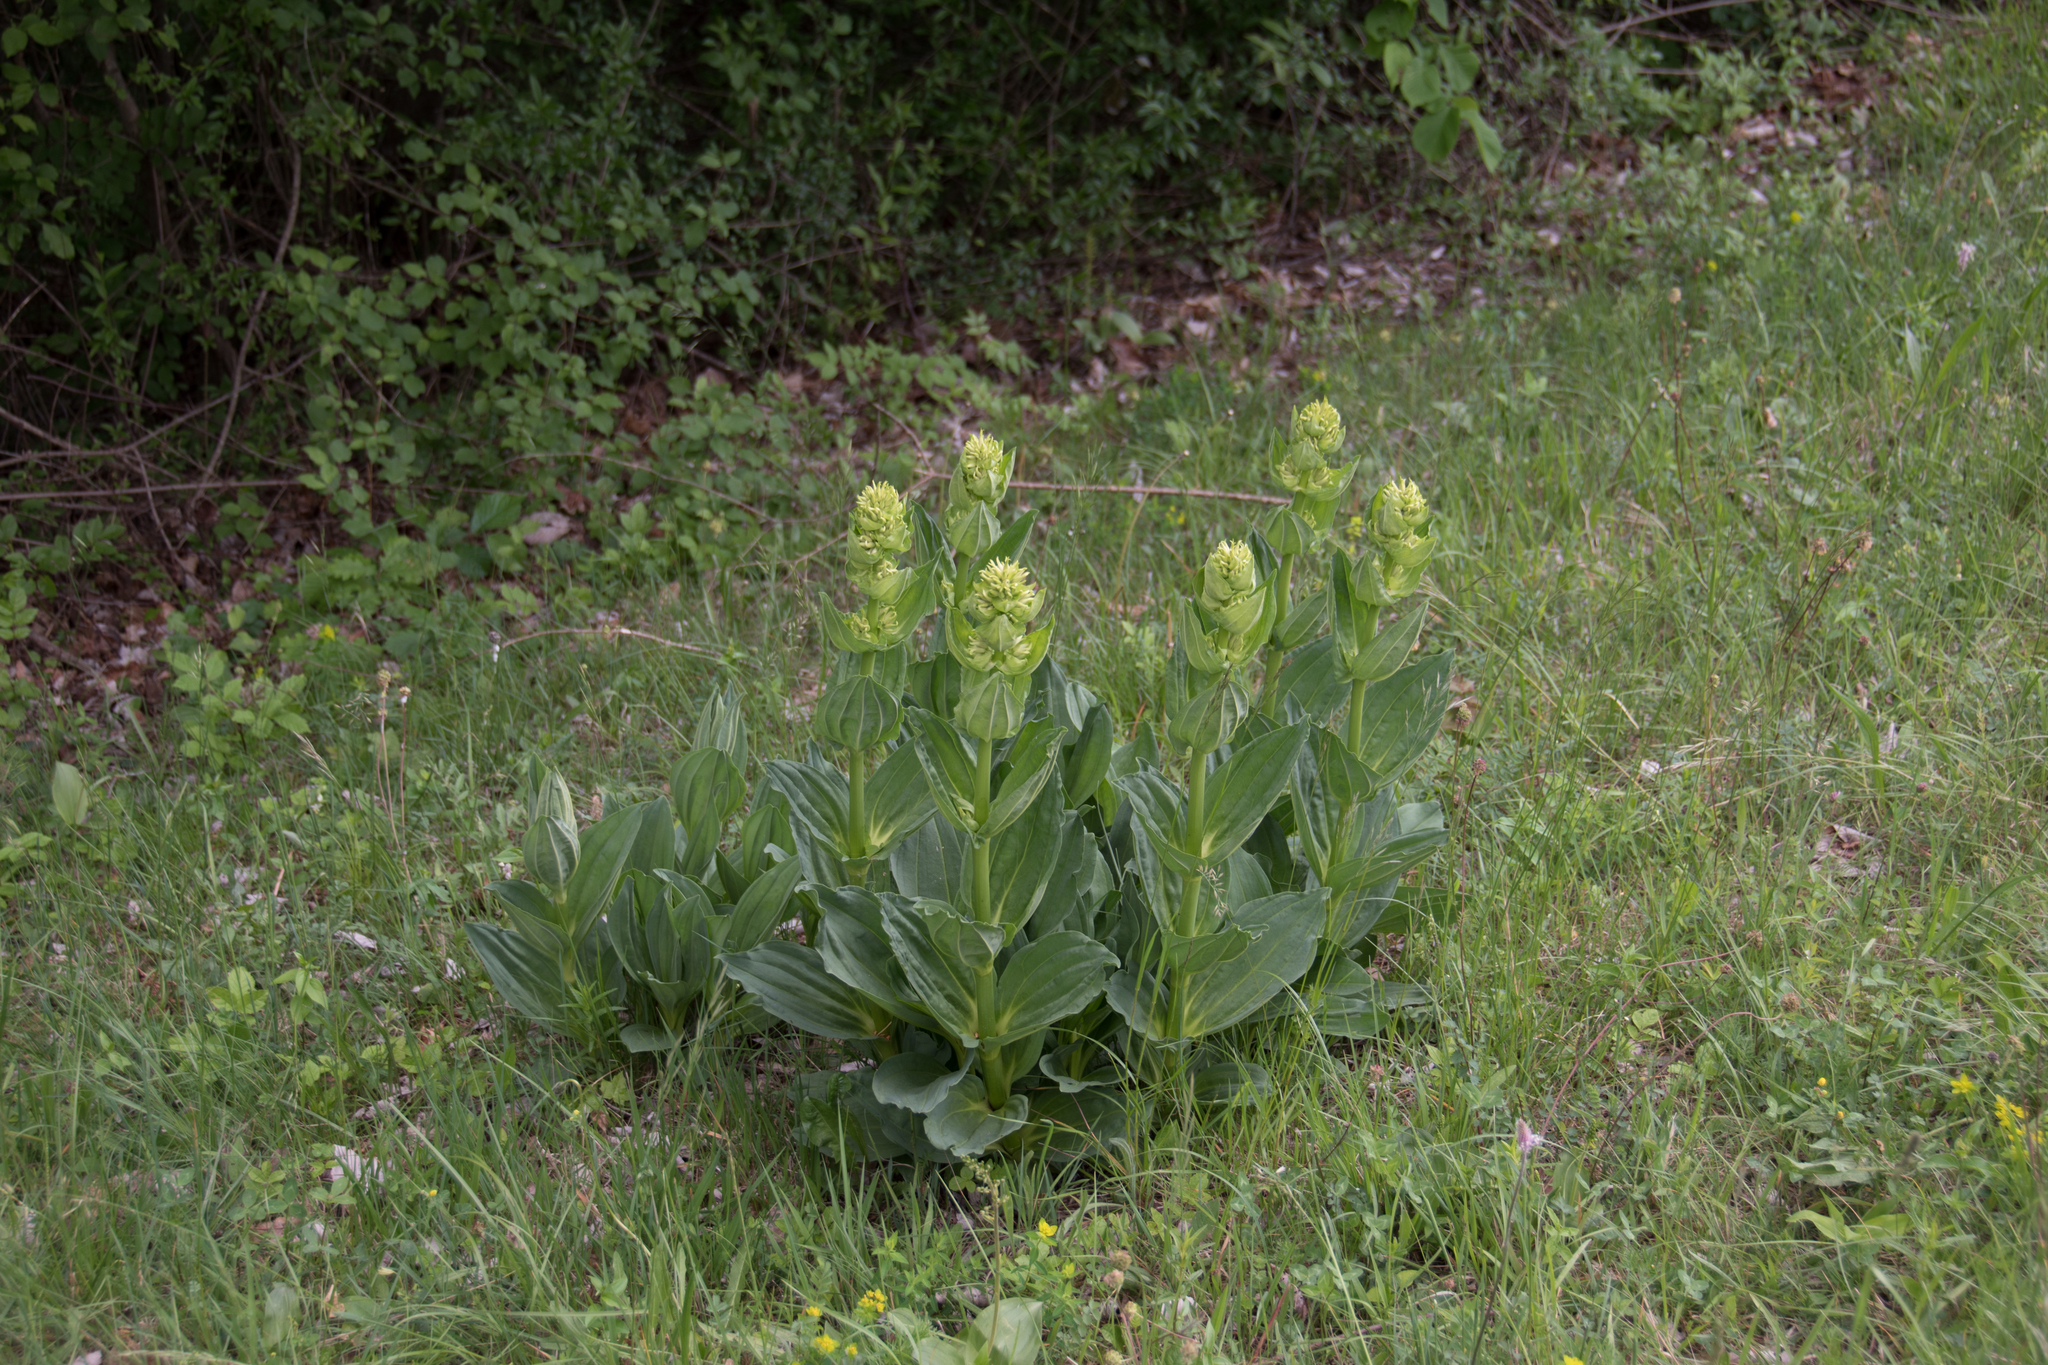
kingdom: Plantae
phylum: Tracheophyta
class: Magnoliopsida
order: Gentianales
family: Gentianaceae
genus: Gentiana
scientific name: Gentiana lutea
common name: Great yellow gentian
